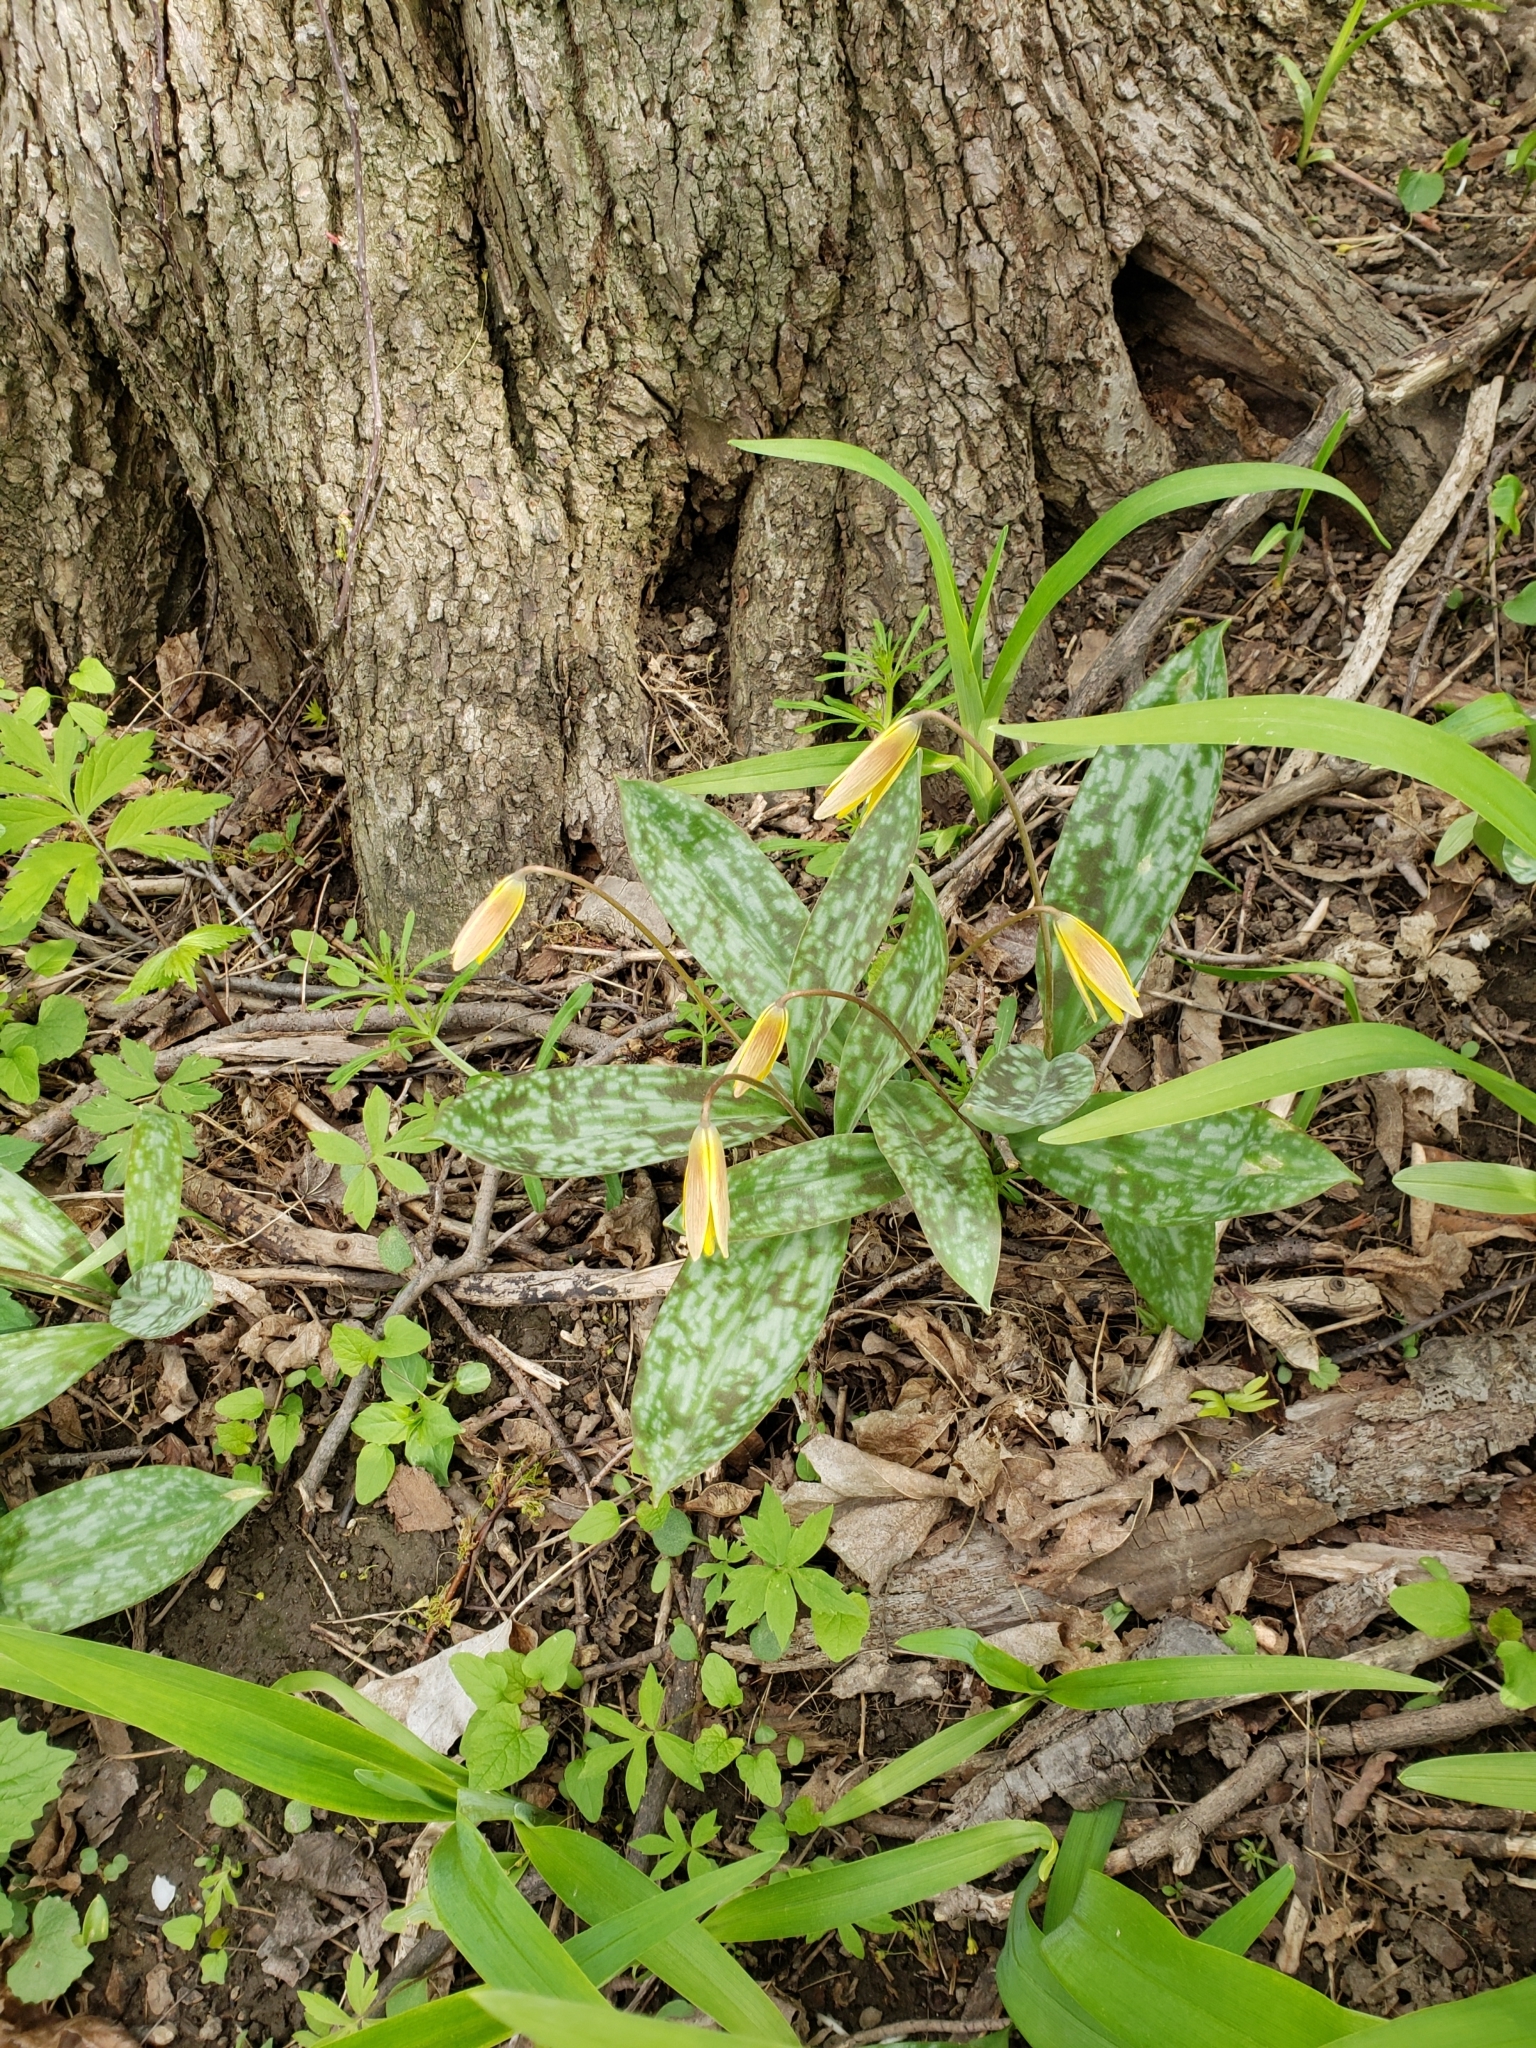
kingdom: Plantae
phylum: Tracheophyta
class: Liliopsida
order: Liliales
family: Liliaceae
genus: Erythronium
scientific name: Erythronium americanum
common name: Yellow adder's-tongue
